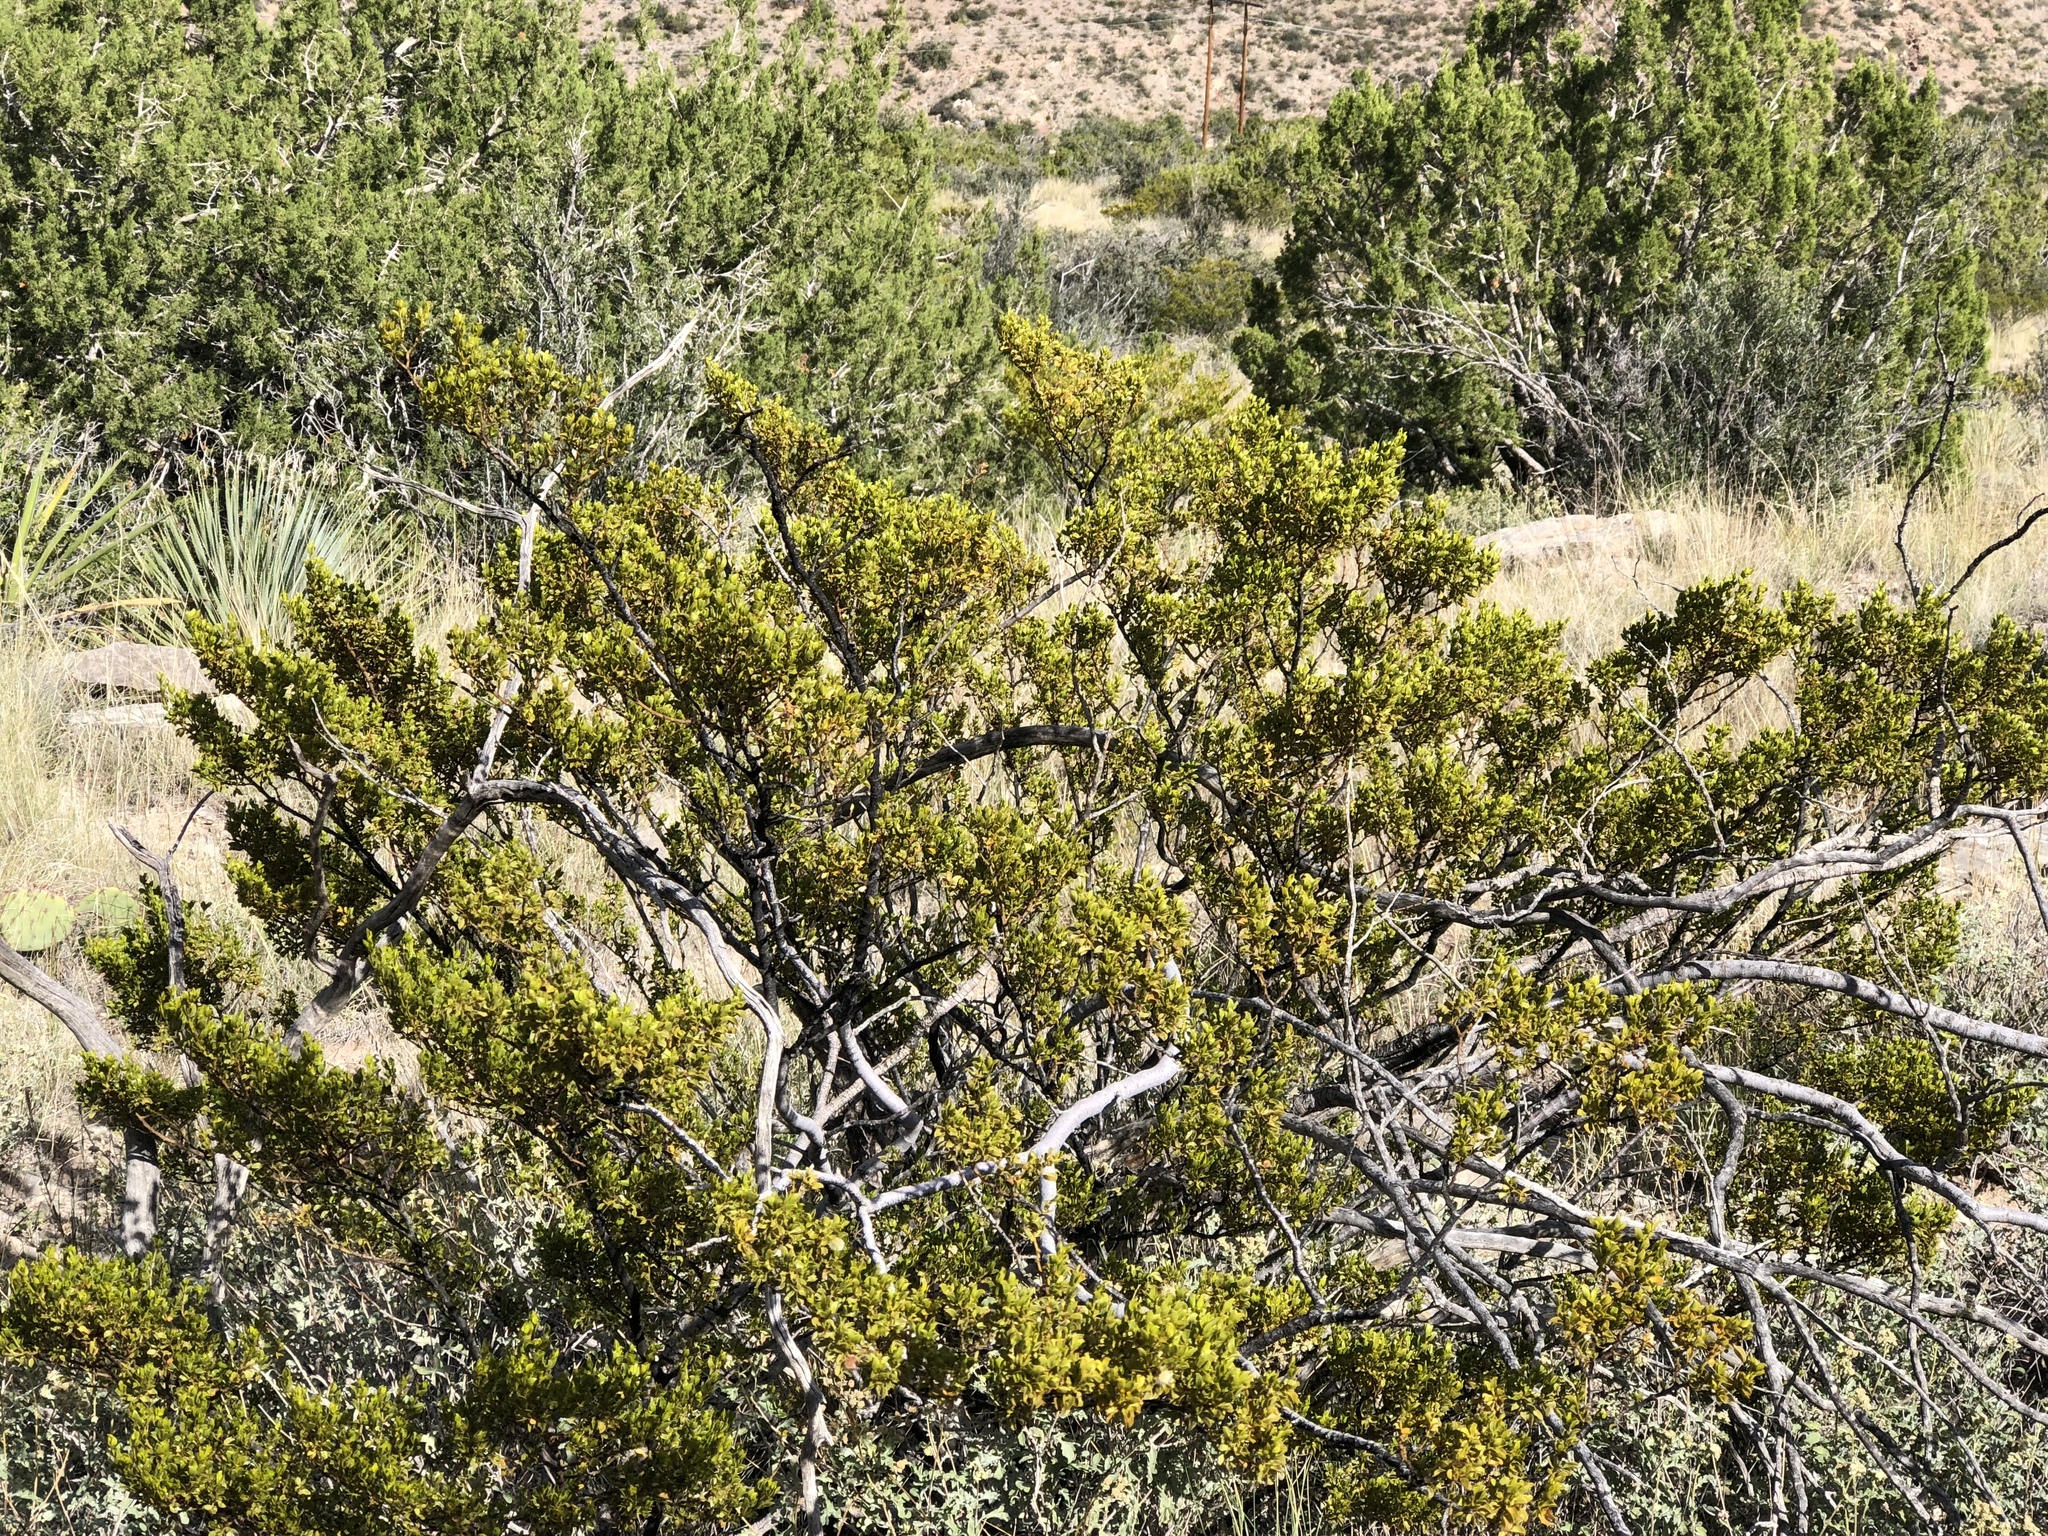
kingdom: Plantae
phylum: Tracheophyta
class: Magnoliopsida
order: Zygophyllales
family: Zygophyllaceae
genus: Larrea
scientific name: Larrea tridentata
